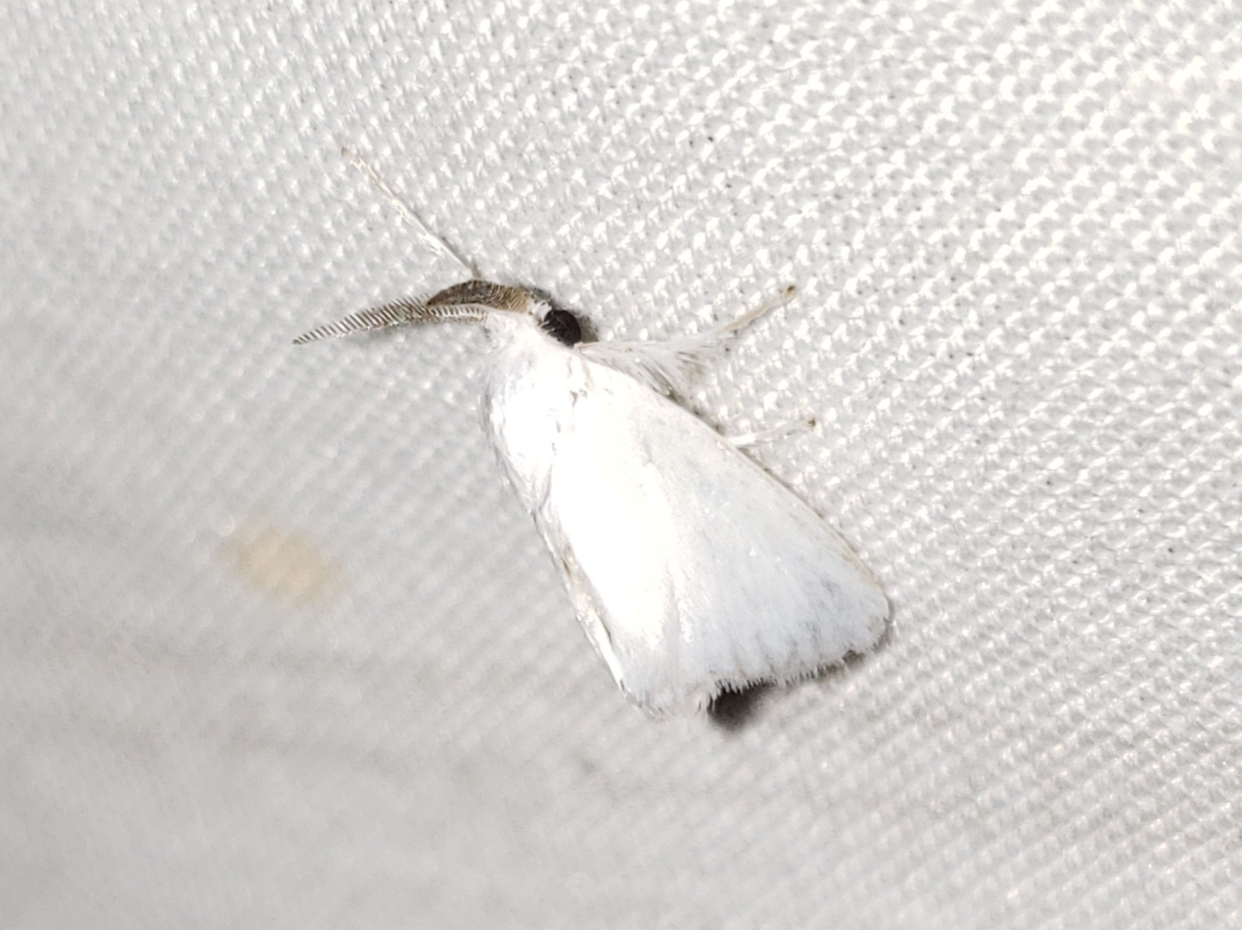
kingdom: Animalia
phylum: Arthropoda
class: Insecta
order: Lepidoptera
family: Limacodidae
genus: Alarodia
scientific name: Alarodia slossoniae
